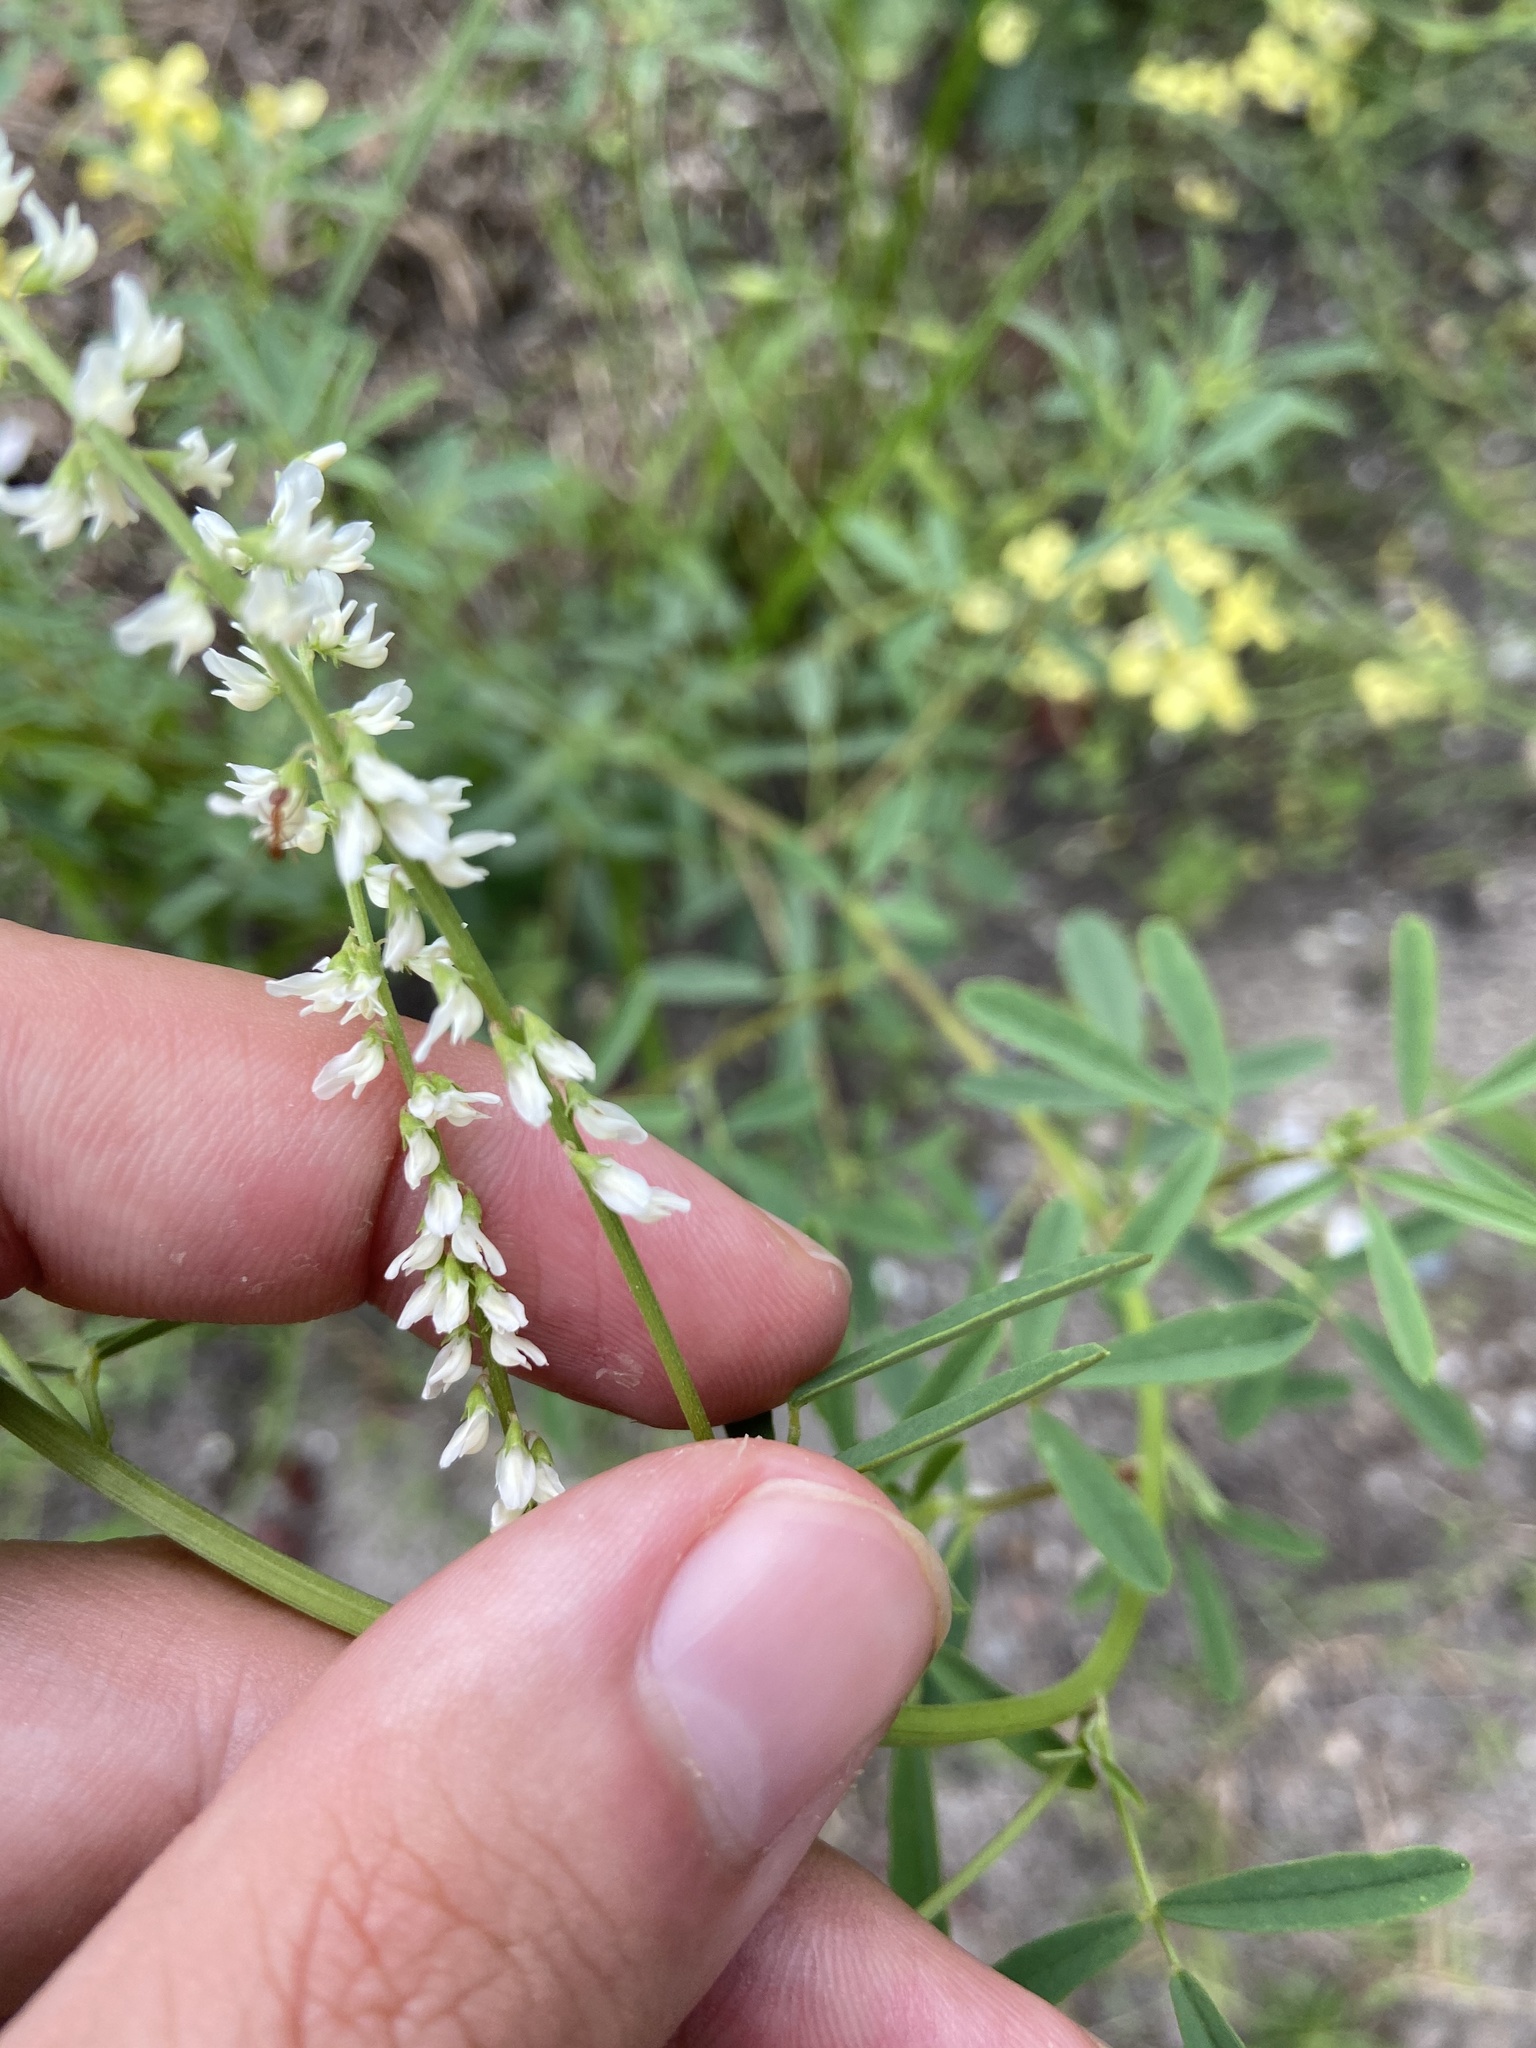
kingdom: Plantae
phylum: Tracheophyta
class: Magnoliopsida
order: Fabales
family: Fabaceae
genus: Melilotus
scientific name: Melilotus albus
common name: White melilot
